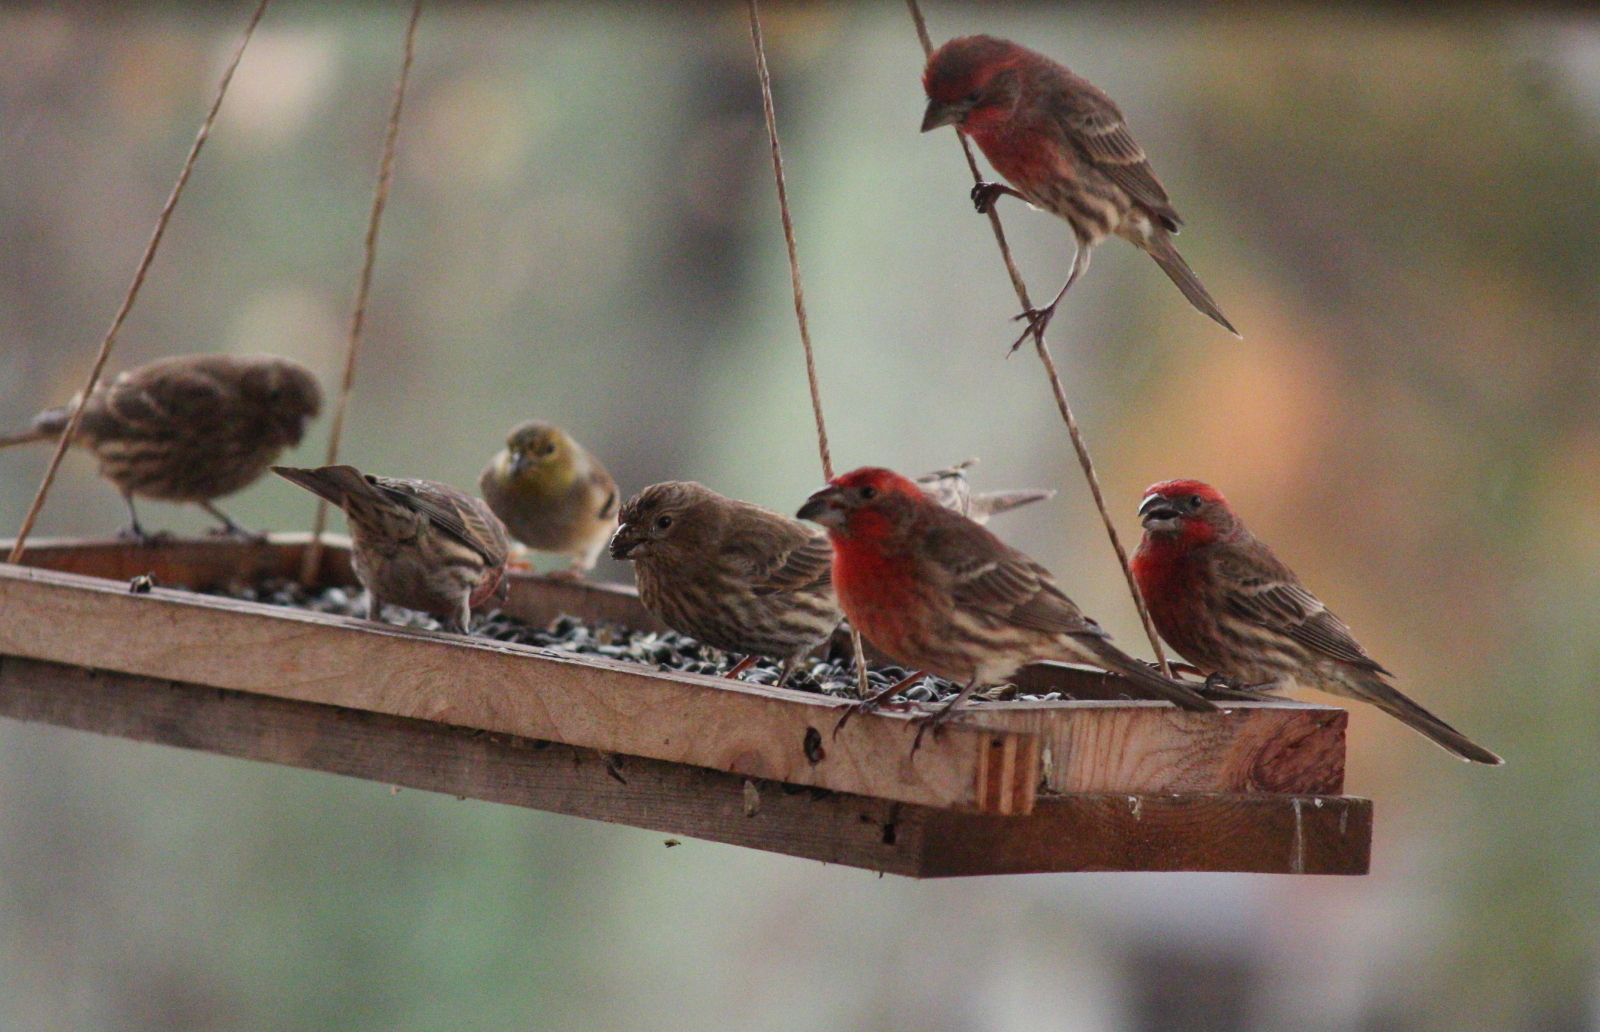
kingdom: Animalia
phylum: Chordata
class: Aves
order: Passeriformes
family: Fringillidae
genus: Haemorhous
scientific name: Haemorhous mexicanus
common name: House finch
